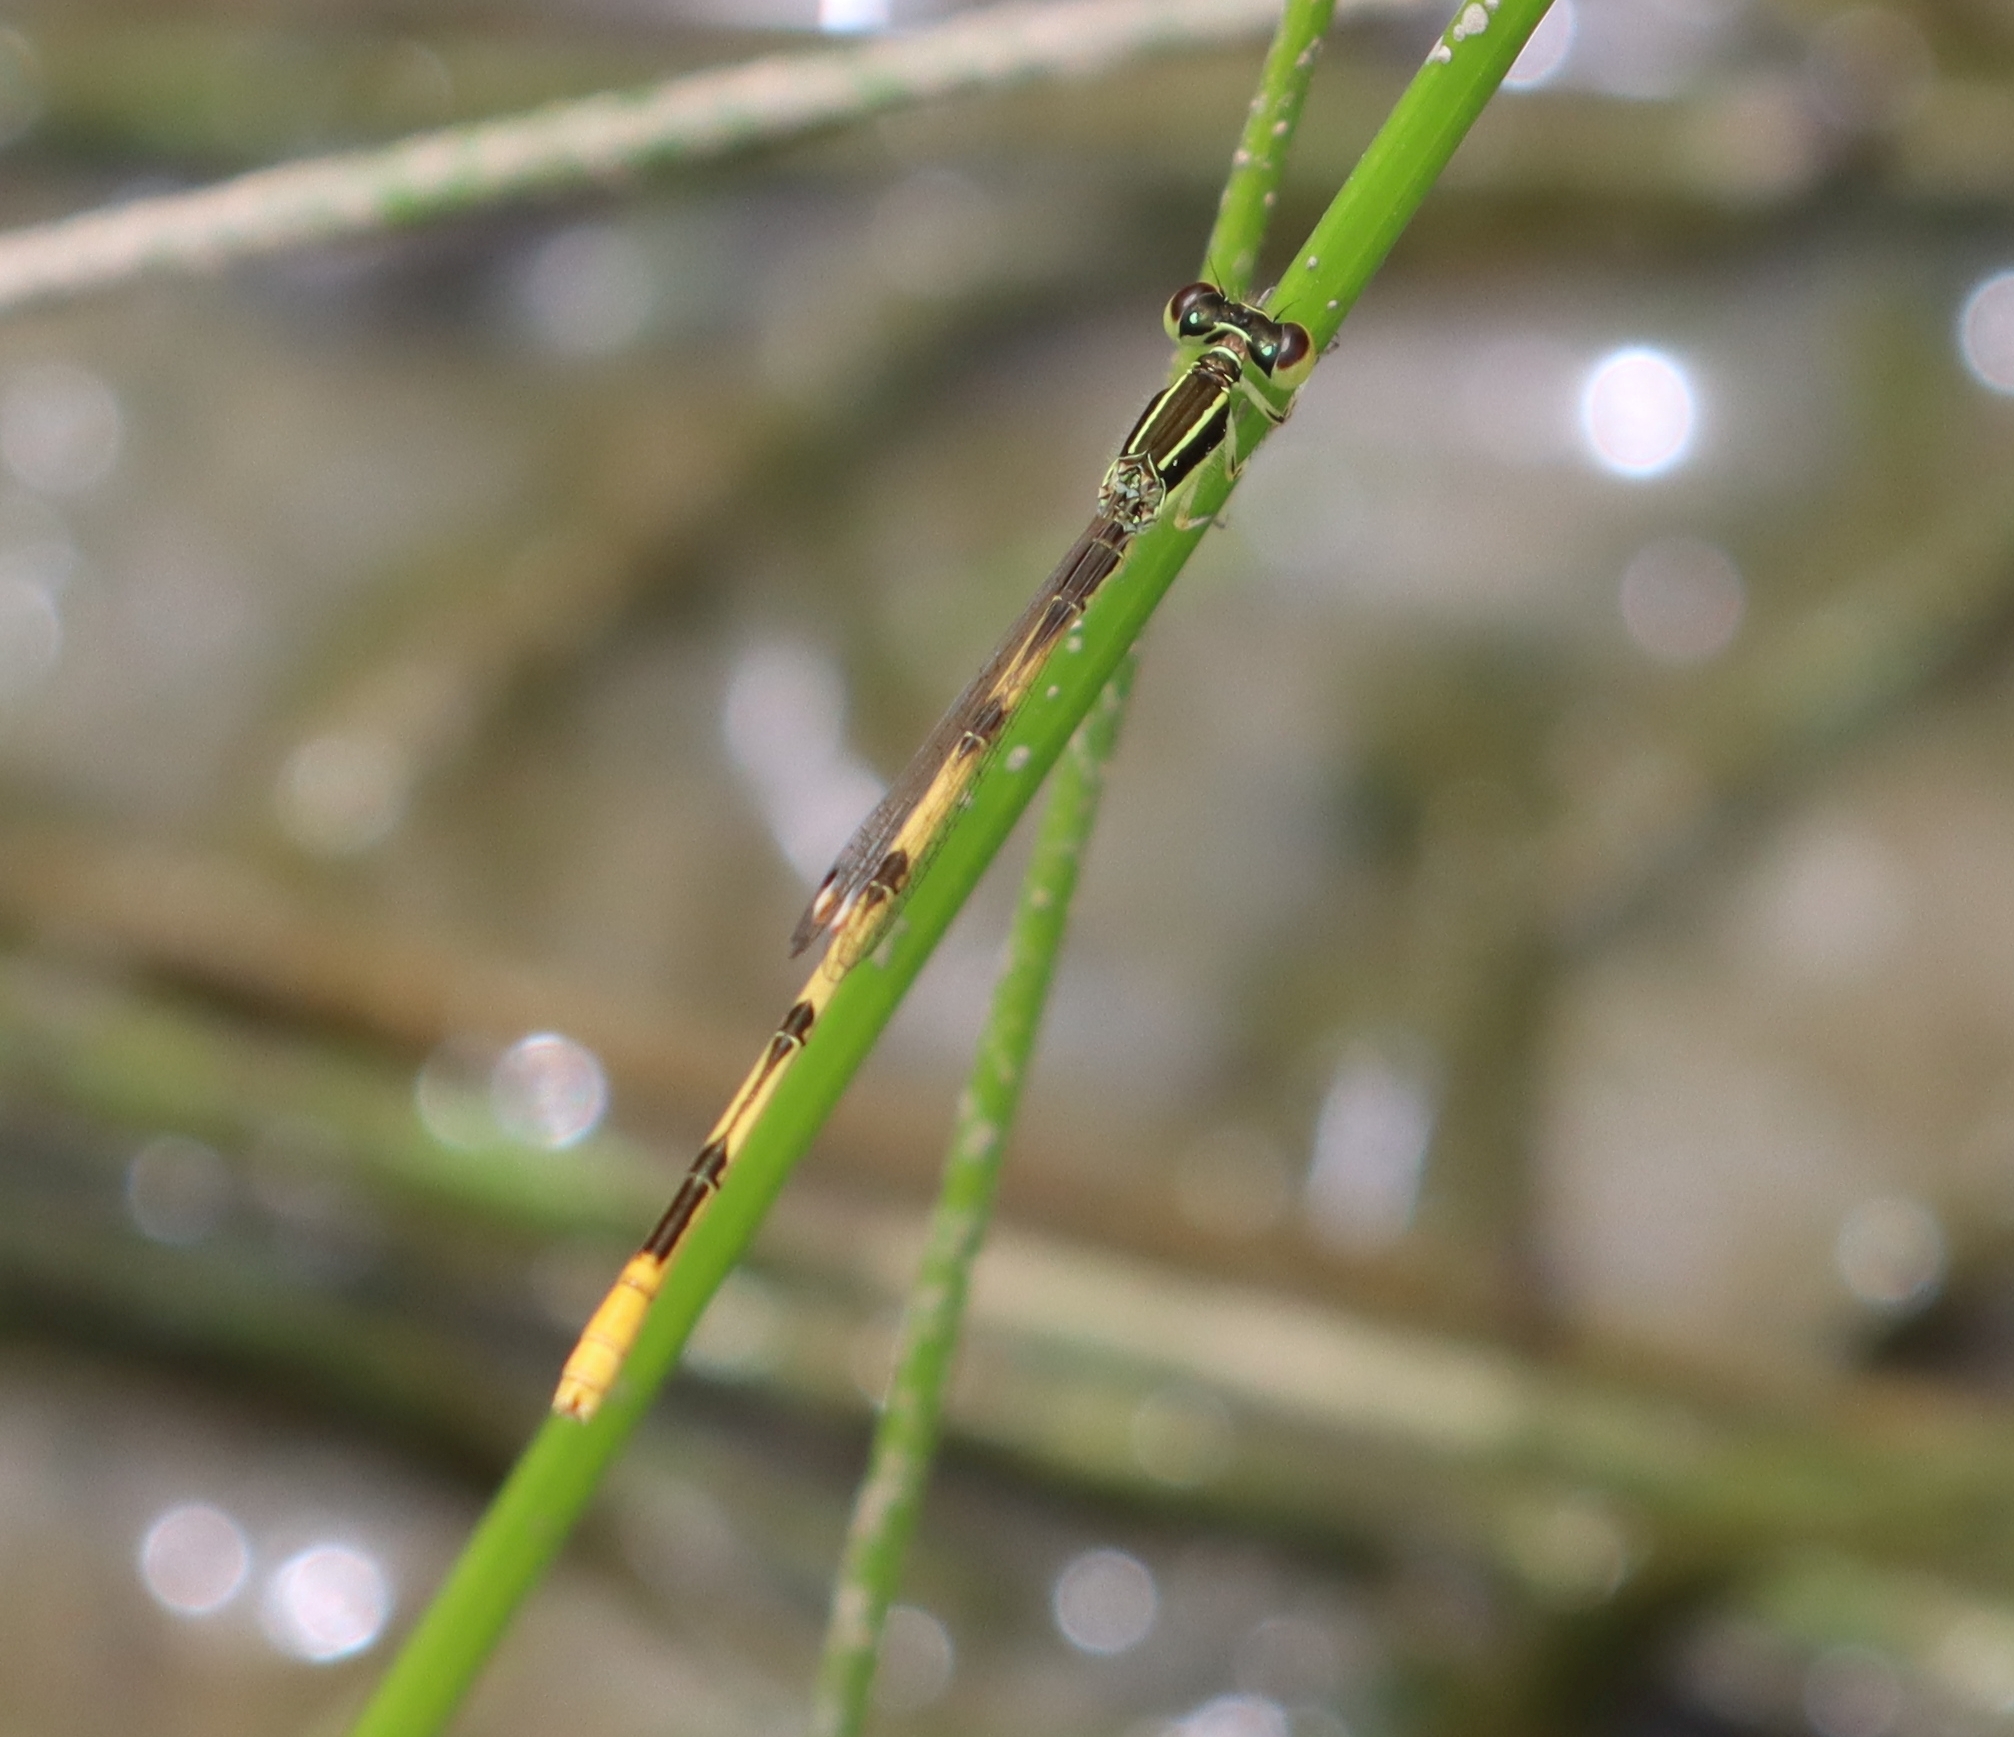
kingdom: Animalia
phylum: Arthropoda
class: Insecta
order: Odonata
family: Coenagrionidae
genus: Ischnura
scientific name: Ischnura hastata
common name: Citrine forktail
